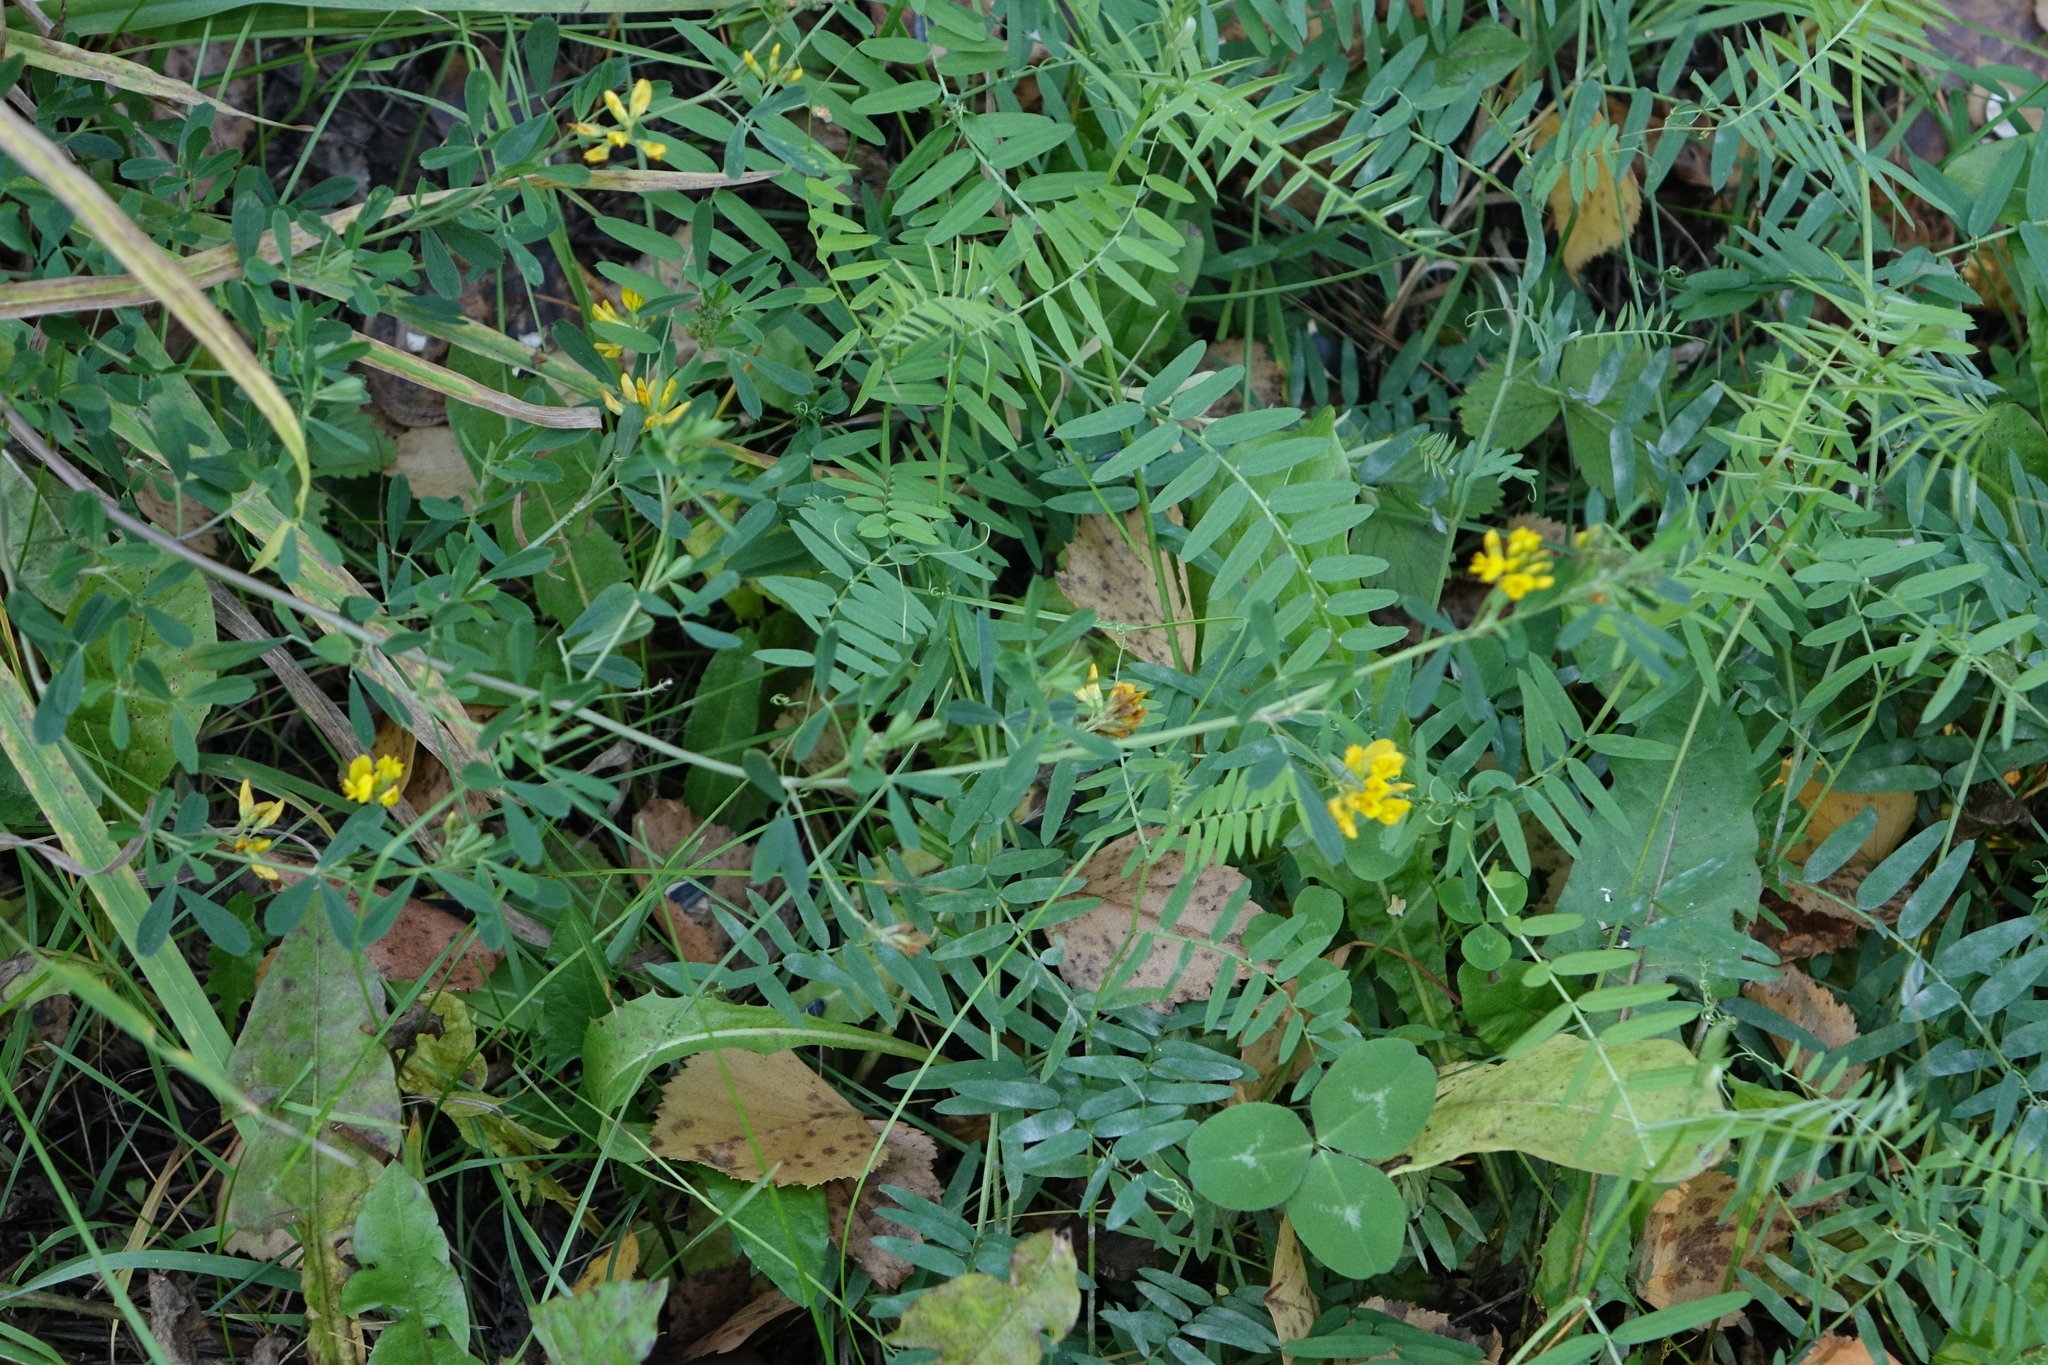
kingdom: Plantae
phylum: Tracheophyta
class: Magnoliopsida
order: Fabales
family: Fabaceae
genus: Vicia
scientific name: Vicia cracca
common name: Bird vetch
